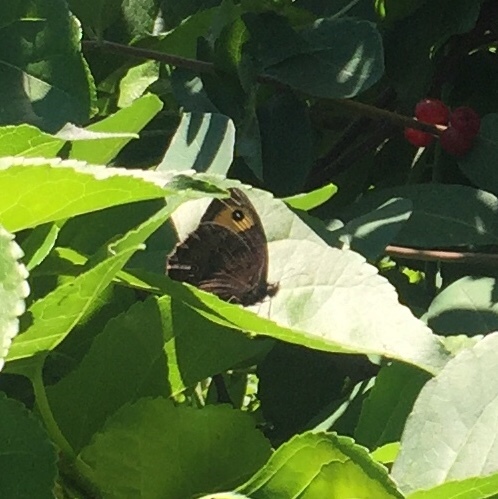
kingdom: Animalia
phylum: Arthropoda
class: Insecta
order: Lepidoptera
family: Nymphalidae
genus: Cercyonis
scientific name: Cercyonis pegala
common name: Common wood-nymph
